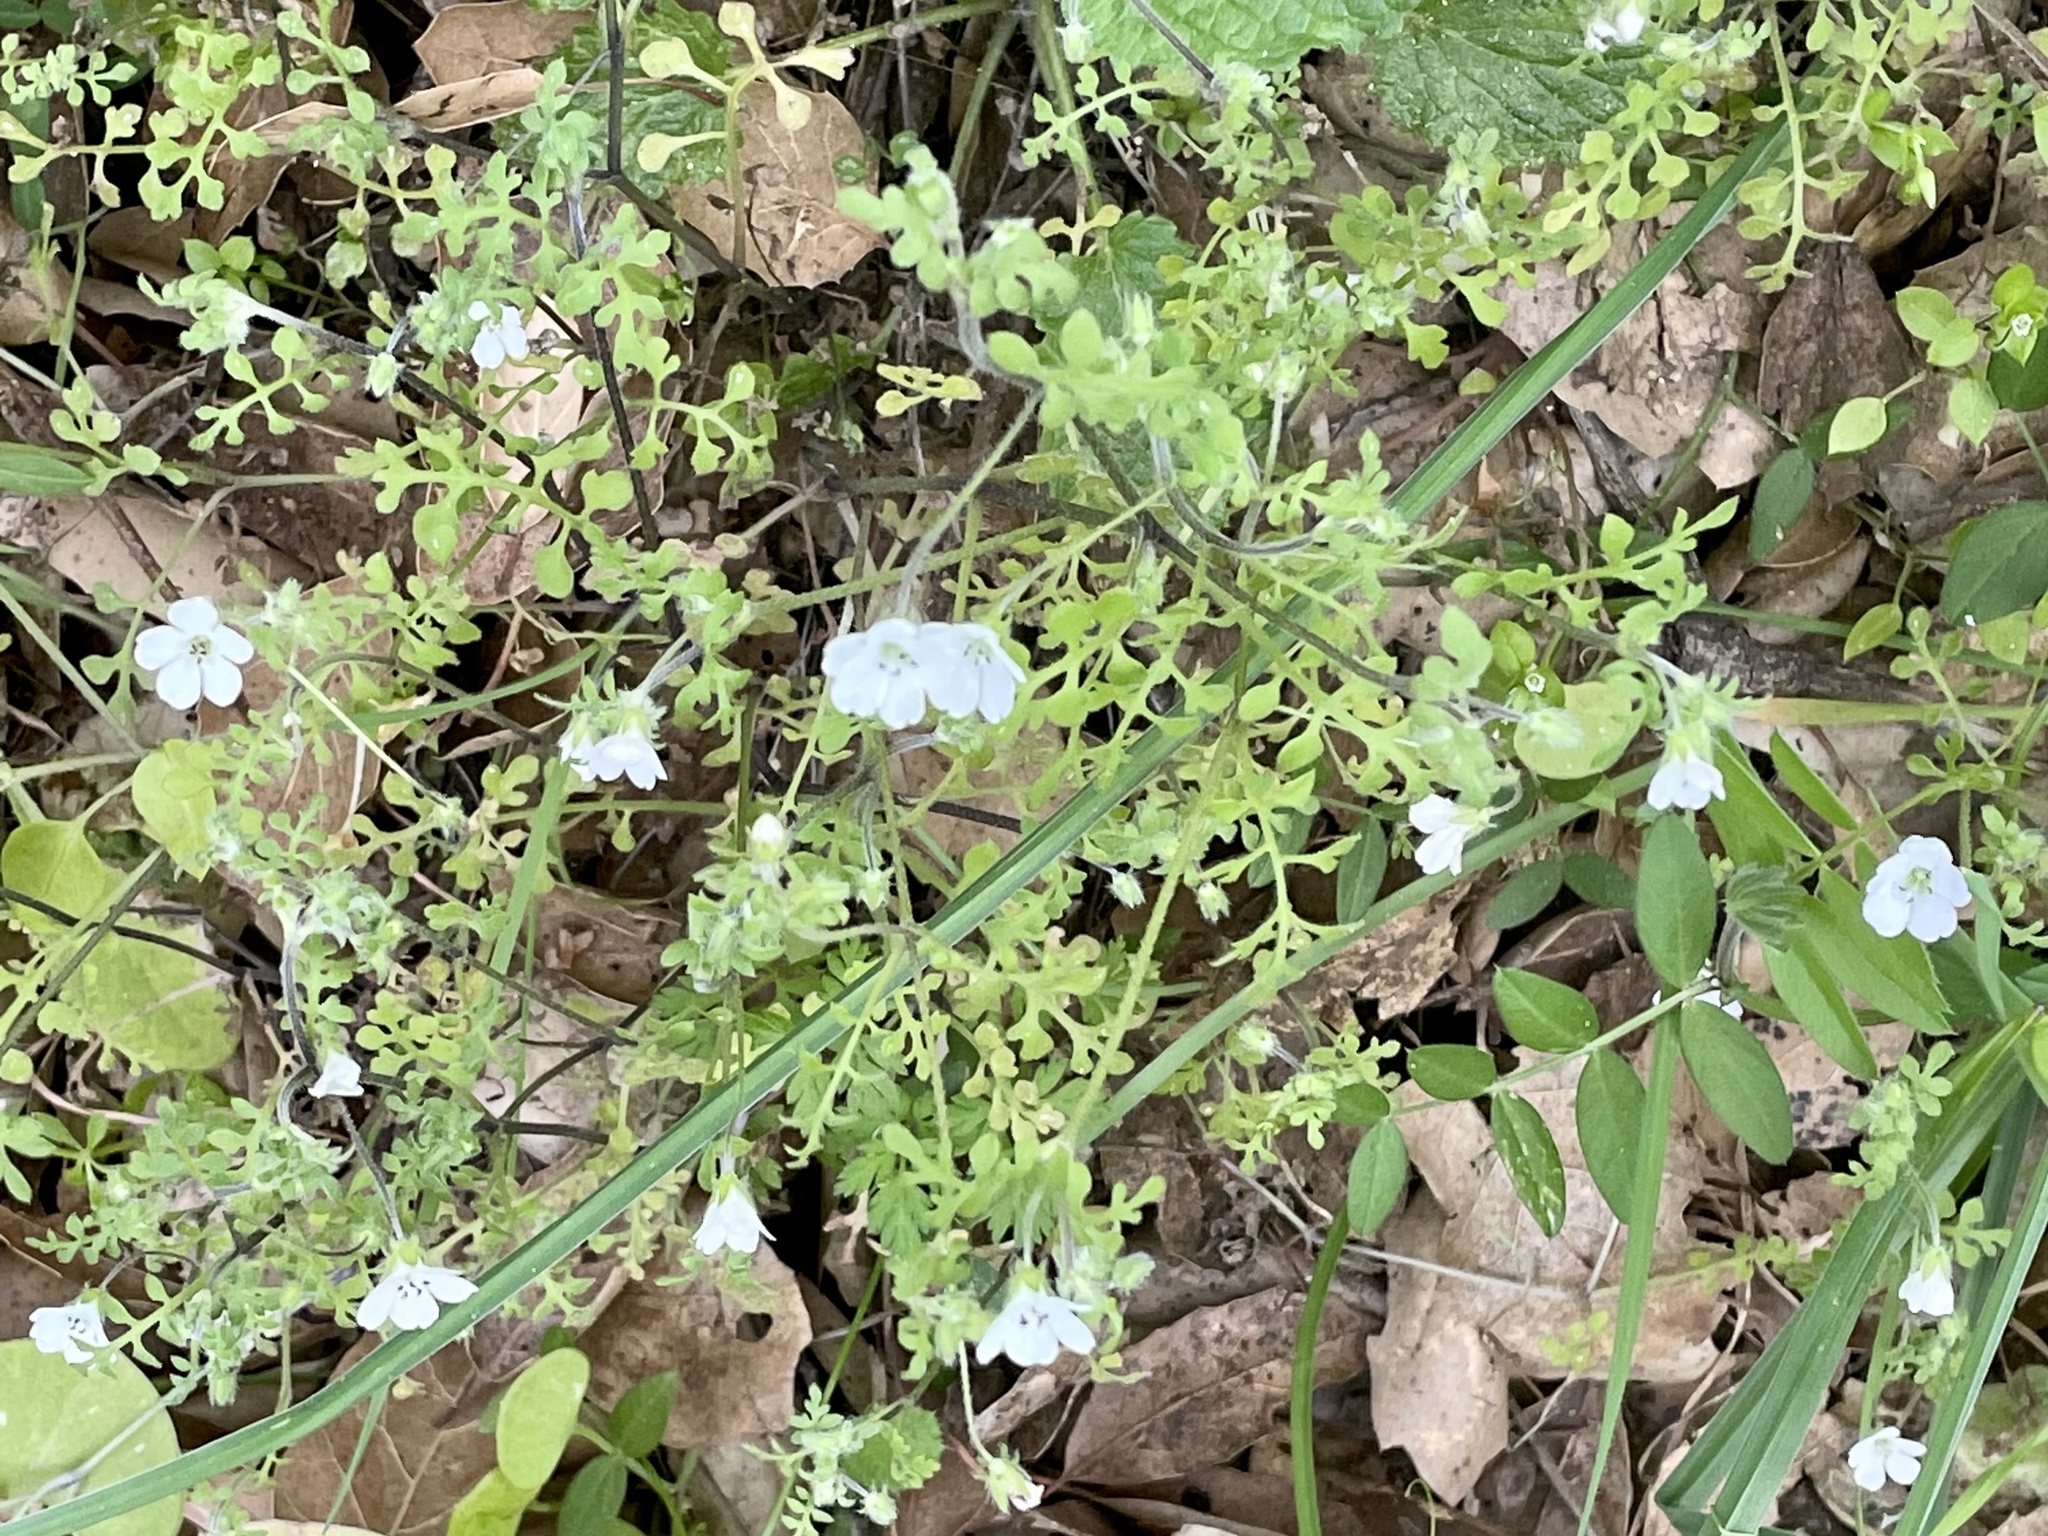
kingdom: Plantae
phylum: Tracheophyta
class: Magnoliopsida
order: Boraginales
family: Hydrophyllaceae
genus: Nemophila
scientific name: Nemophila heterophylla
